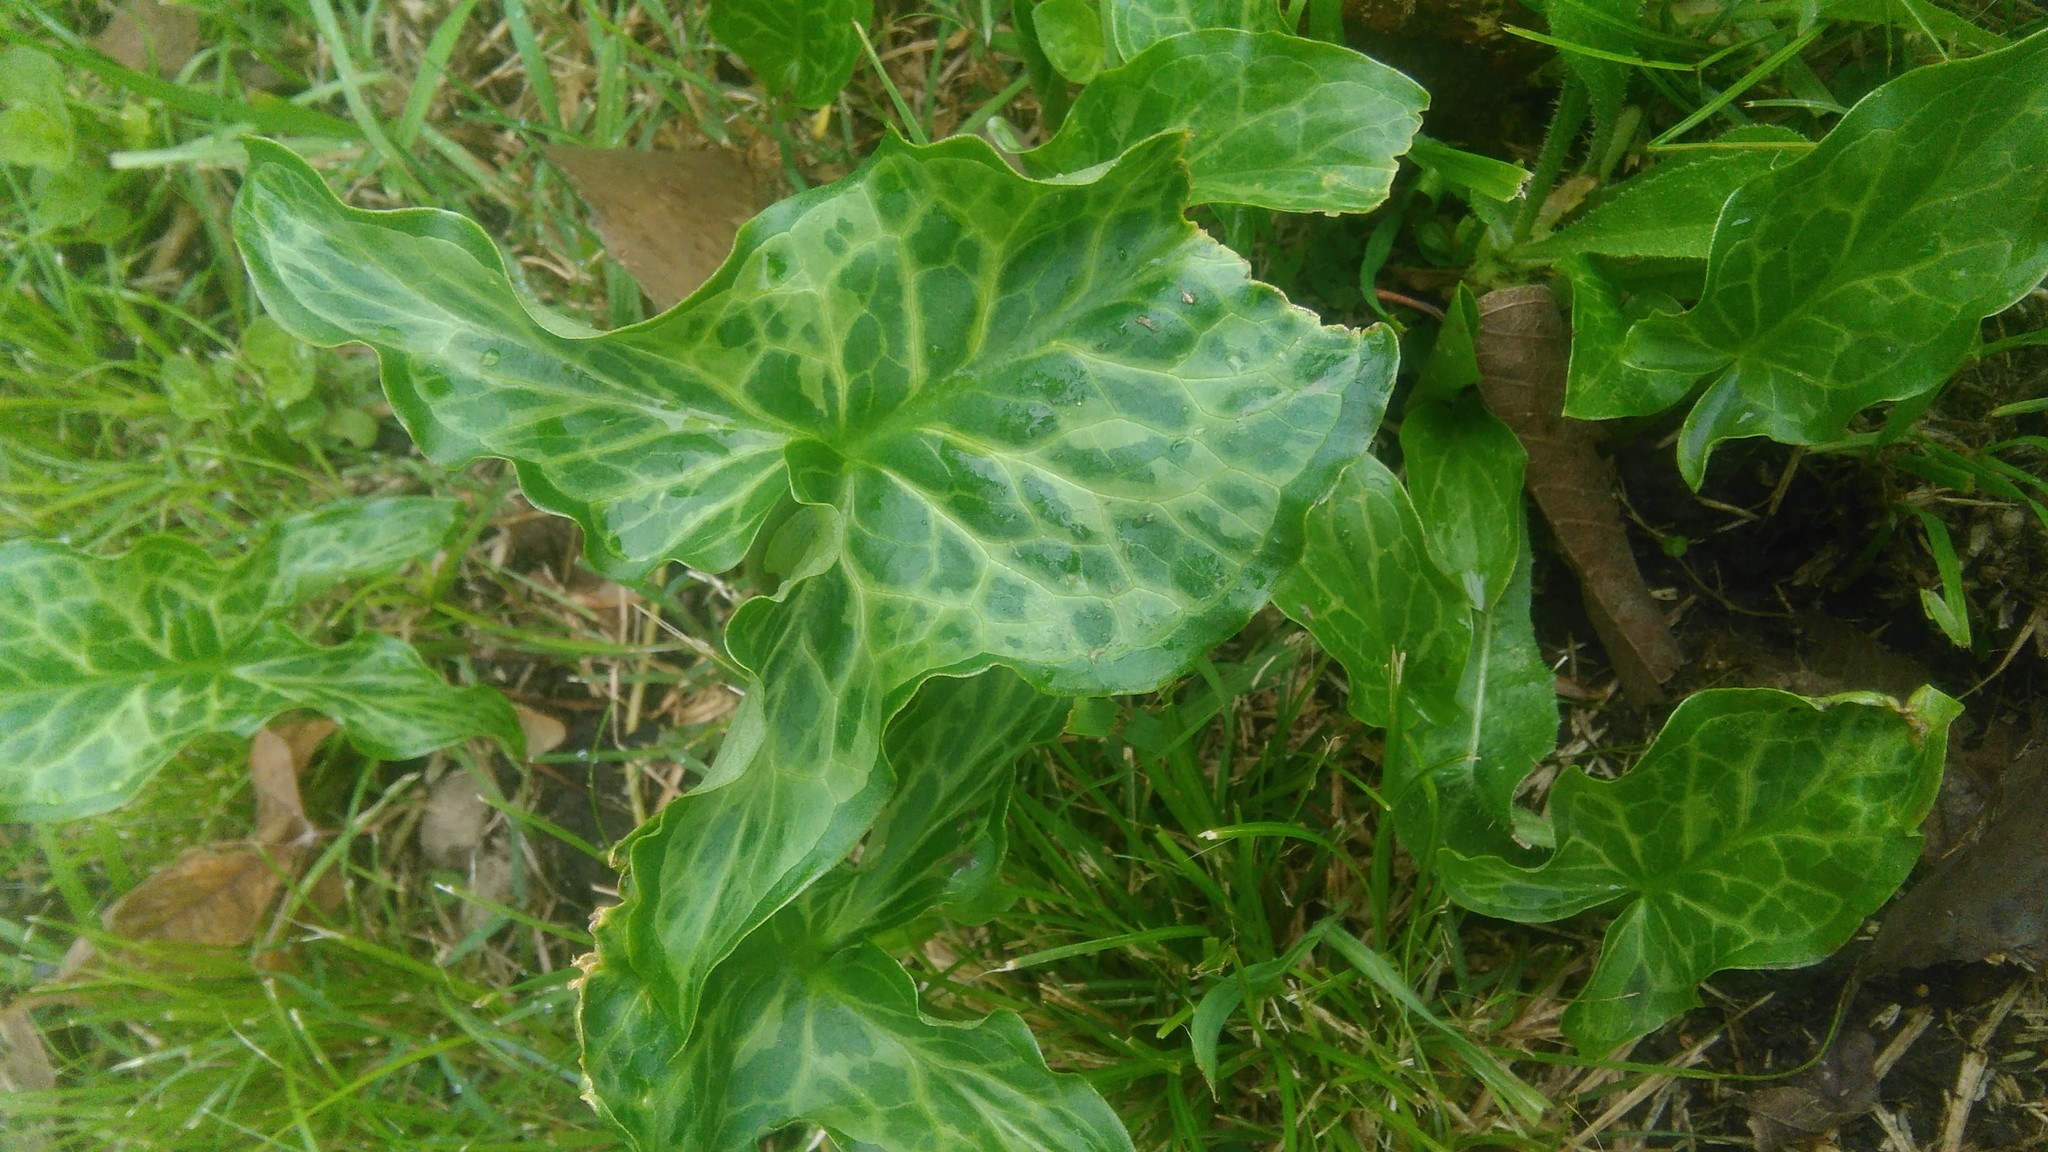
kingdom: Plantae
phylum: Tracheophyta
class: Liliopsida
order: Alismatales
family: Araceae
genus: Arum
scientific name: Arum italicum
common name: Italian lords-and-ladies
